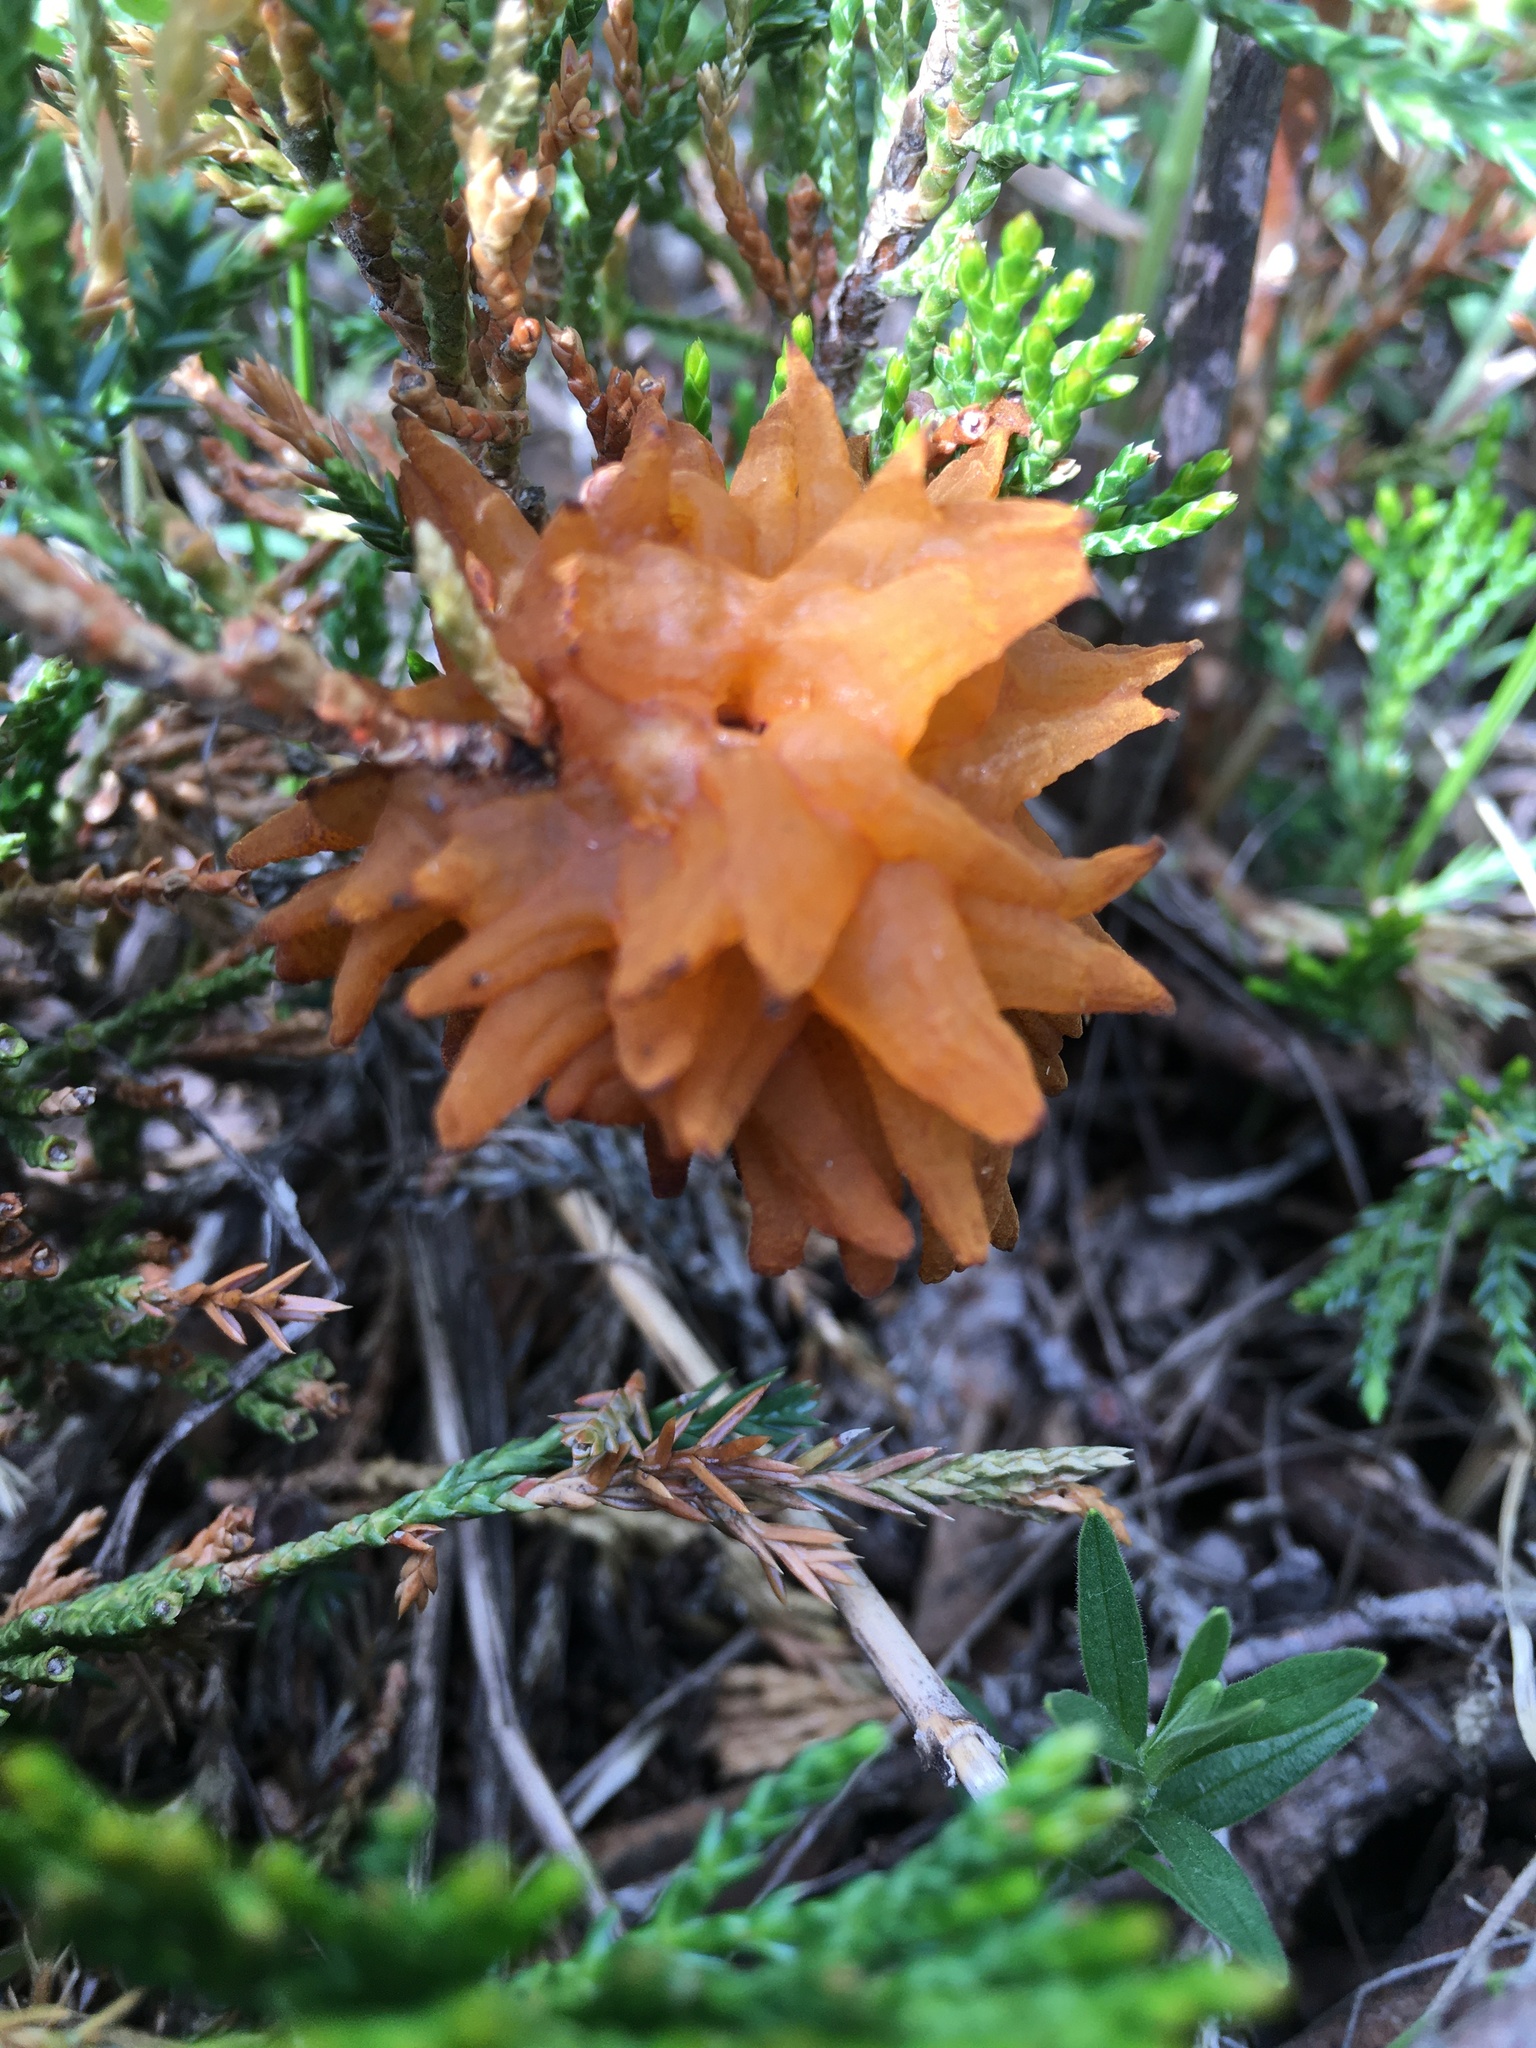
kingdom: Fungi
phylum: Basidiomycota
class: Pucciniomycetes
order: Pucciniales
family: Gymnosporangiaceae
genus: Gymnosporangium
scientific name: Gymnosporangium juniperi-virginianae
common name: Juniper-apple rust
